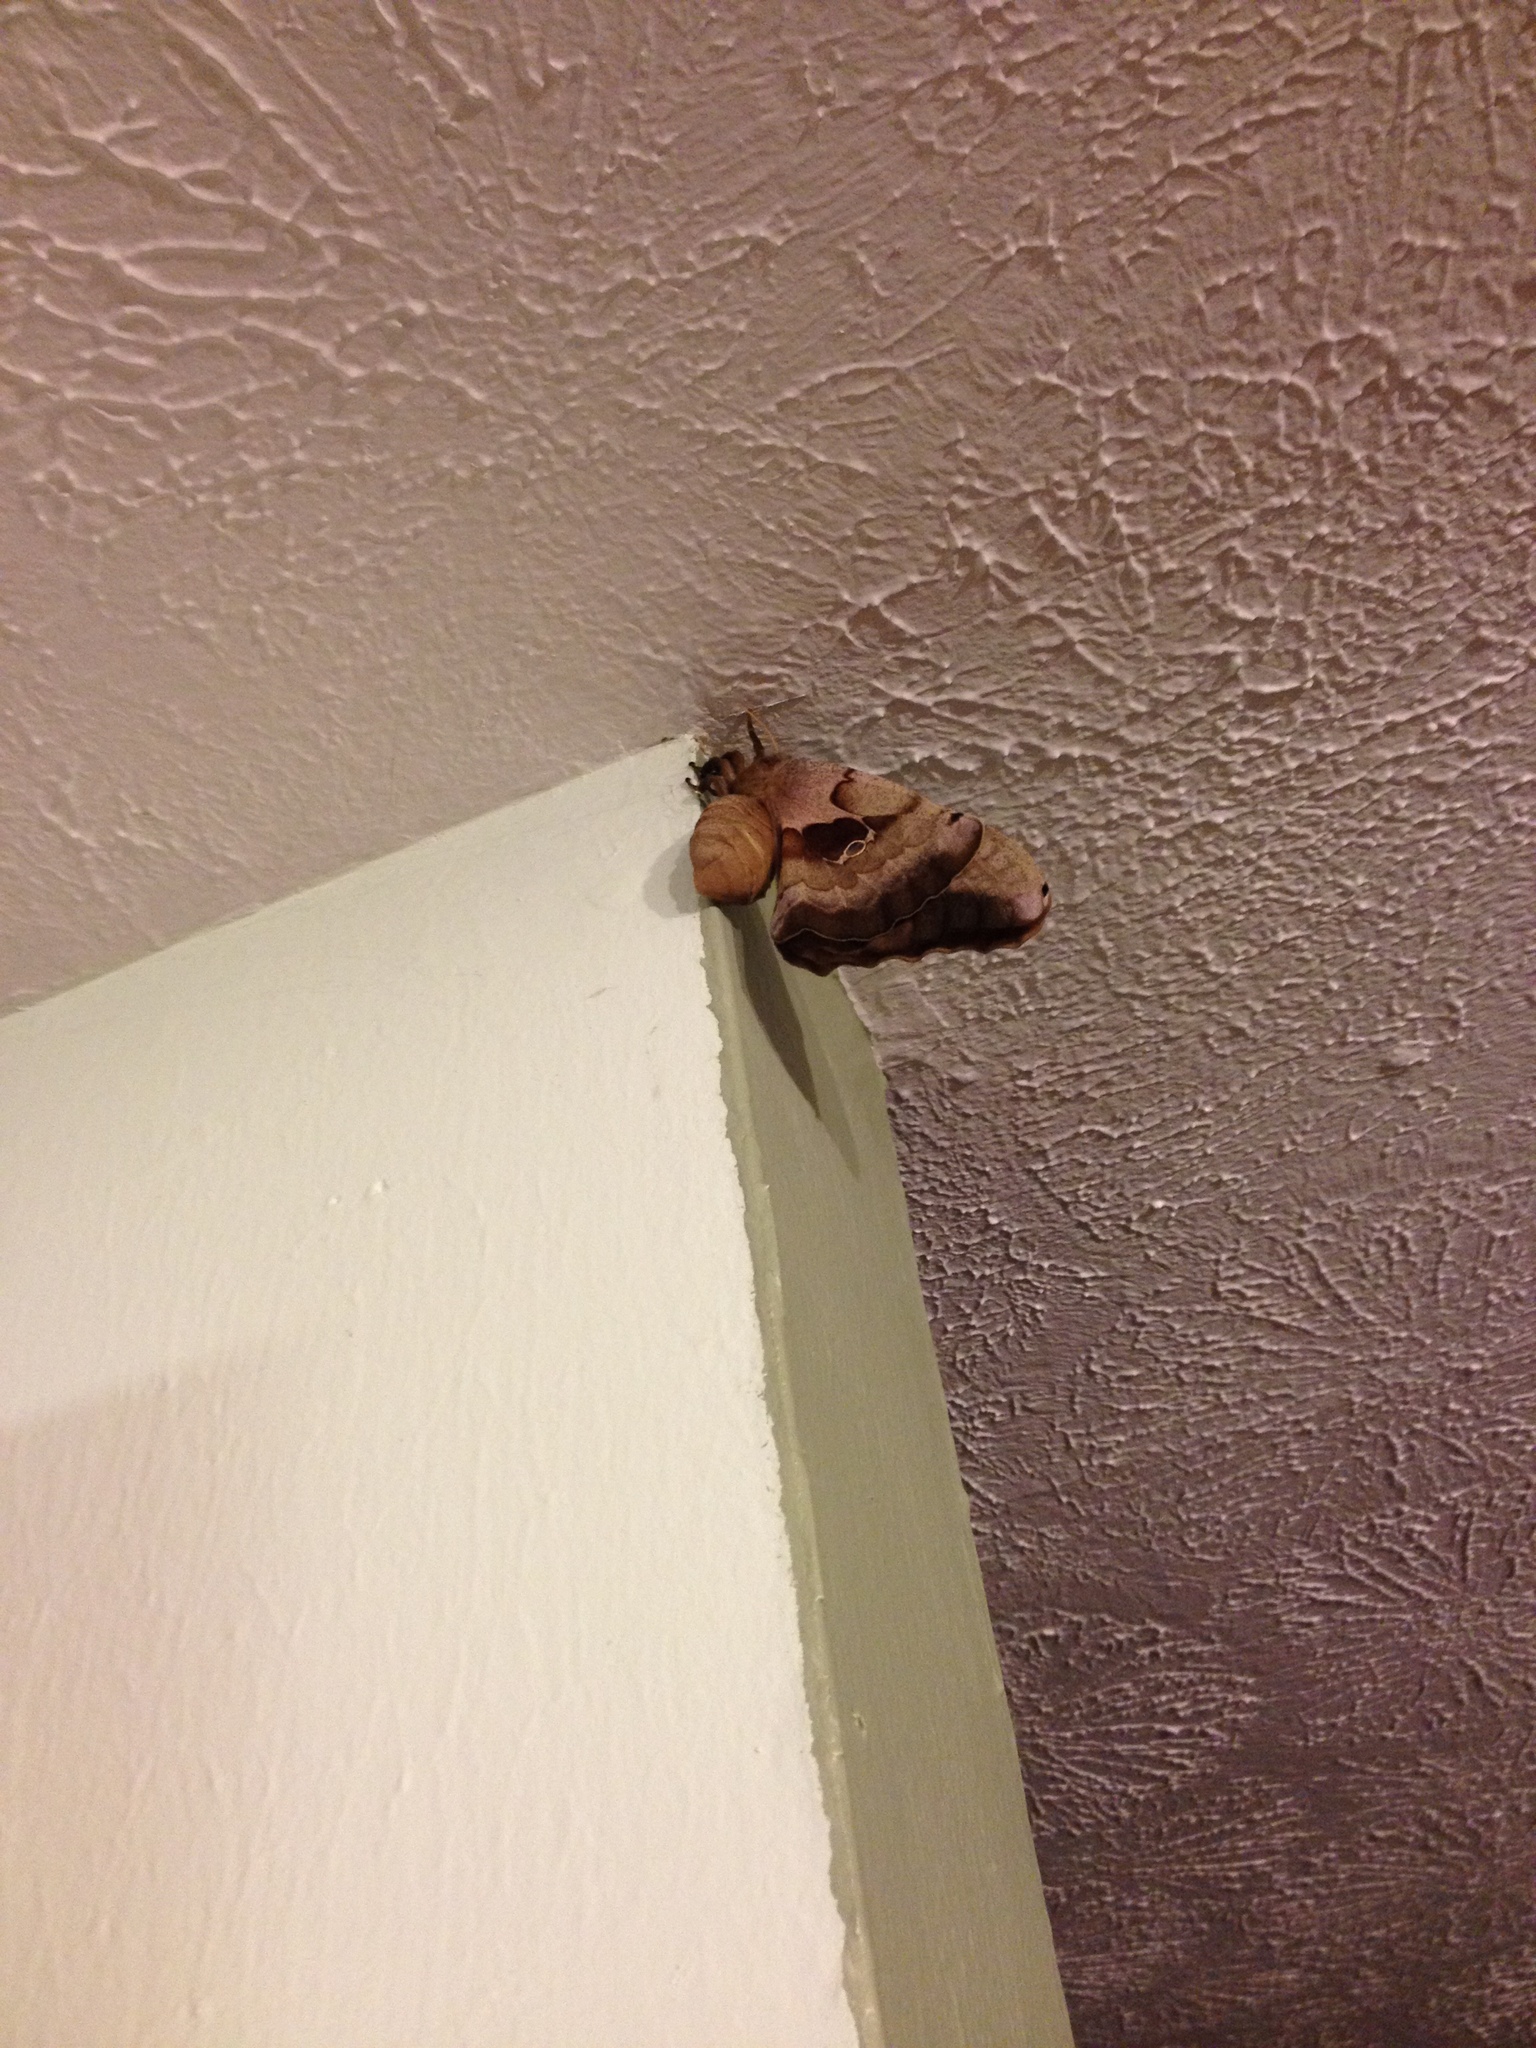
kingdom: Animalia
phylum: Arthropoda
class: Insecta
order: Lepidoptera
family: Saturniidae
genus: Antheraea
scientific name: Antheraea polyphemus
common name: Polyphemus moth
